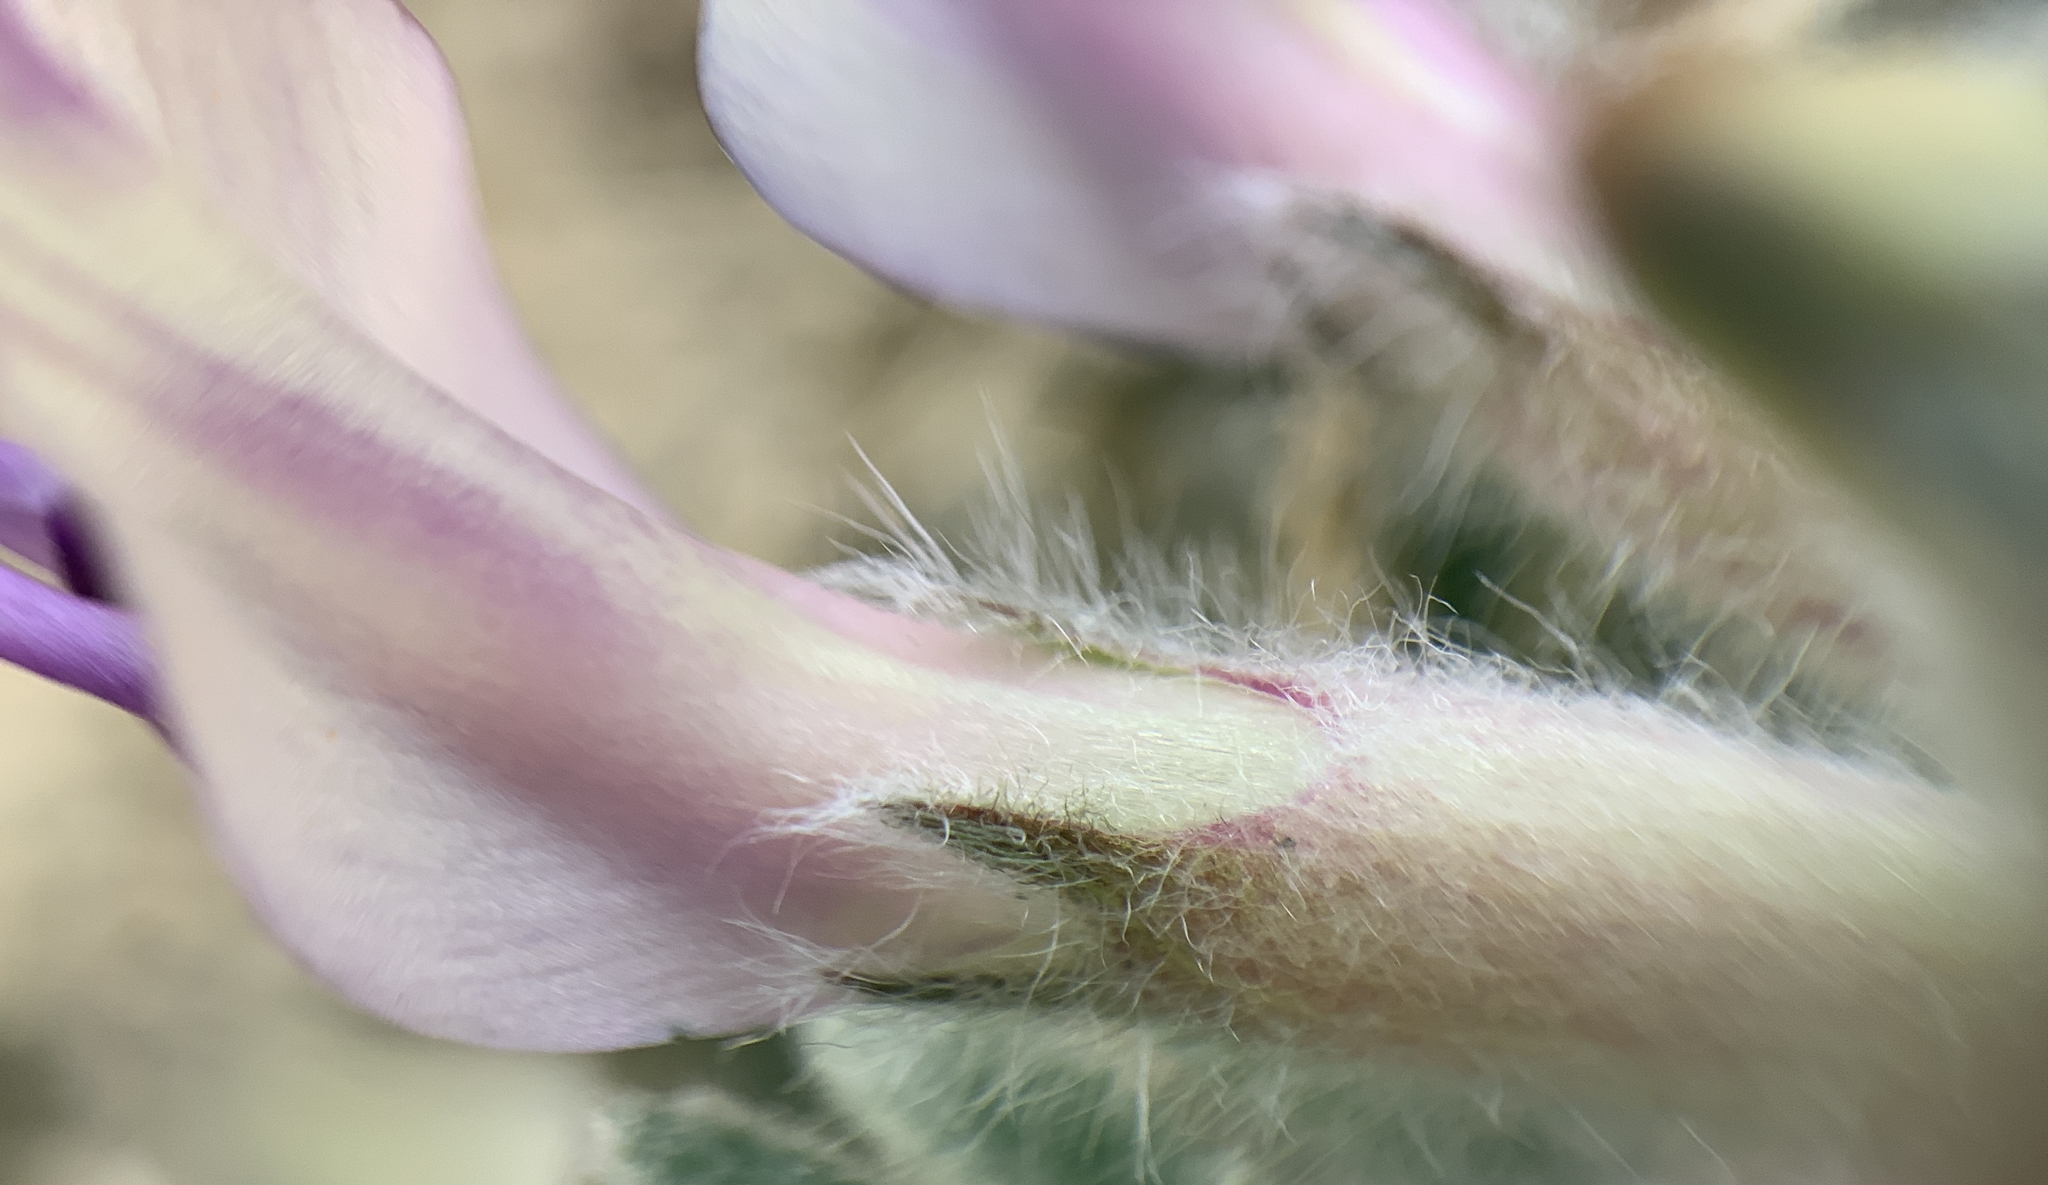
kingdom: Plantae
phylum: Tracheophyta
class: Magnoliopsida
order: Fabales
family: Fabaceae
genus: Astragalus
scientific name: Astragalus purshii
